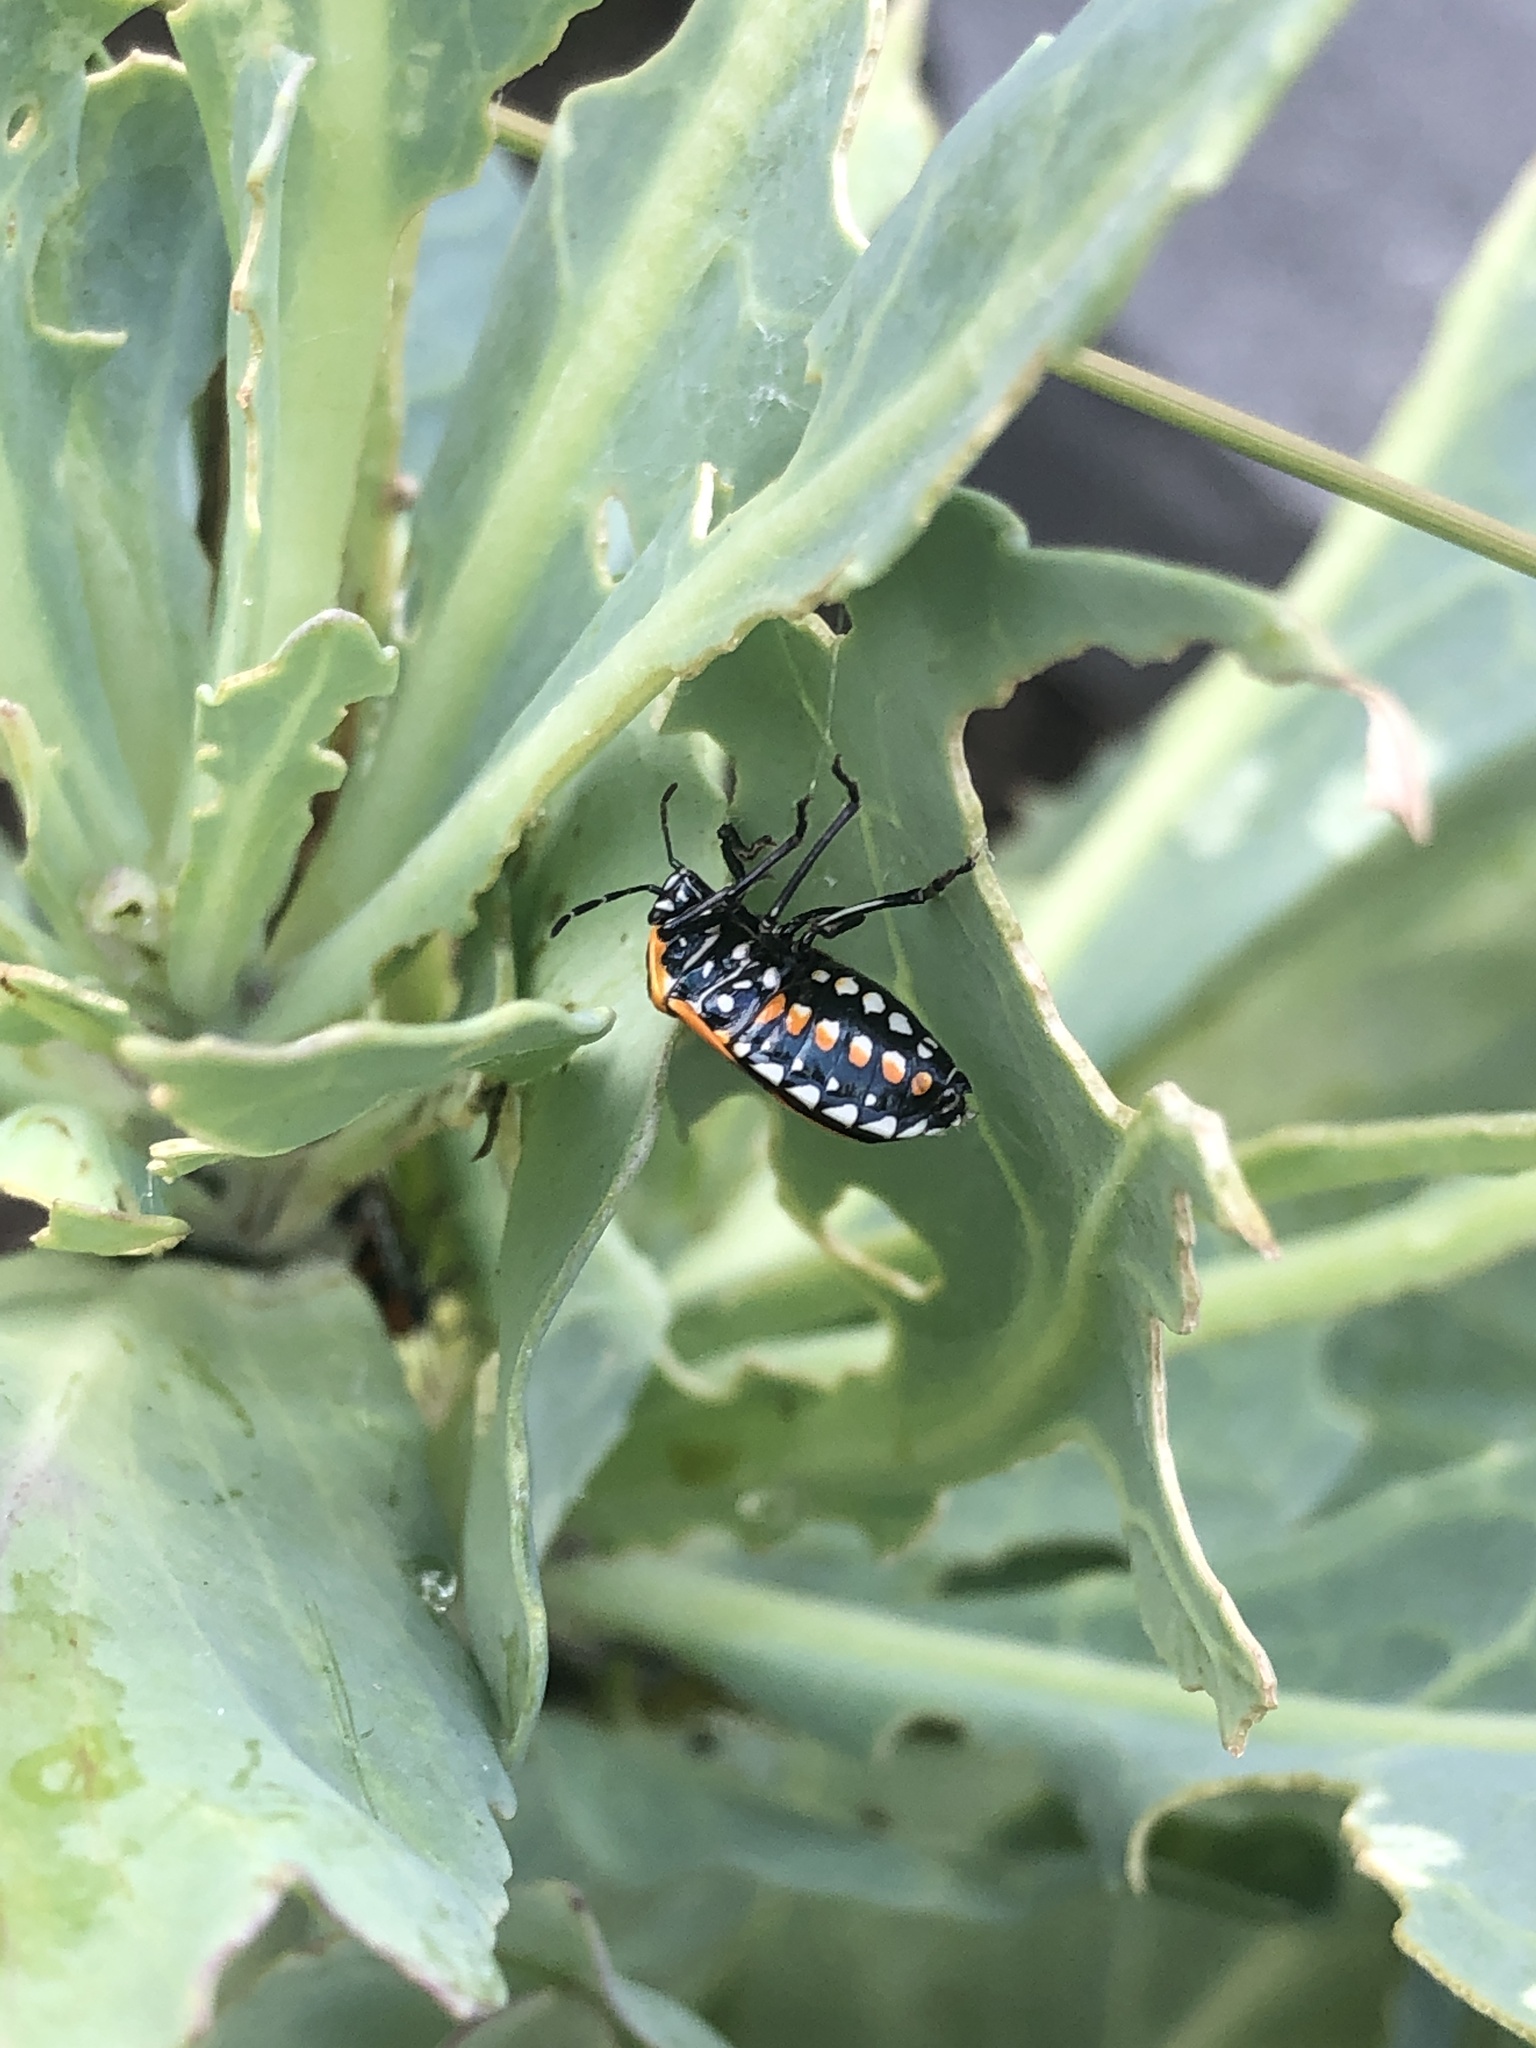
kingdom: Animalia
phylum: Arthropoda
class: Insecta
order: Hemiptera
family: Pentatomidae
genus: Murgantia
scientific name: Murgantia histrionica
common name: Harlequin bug
